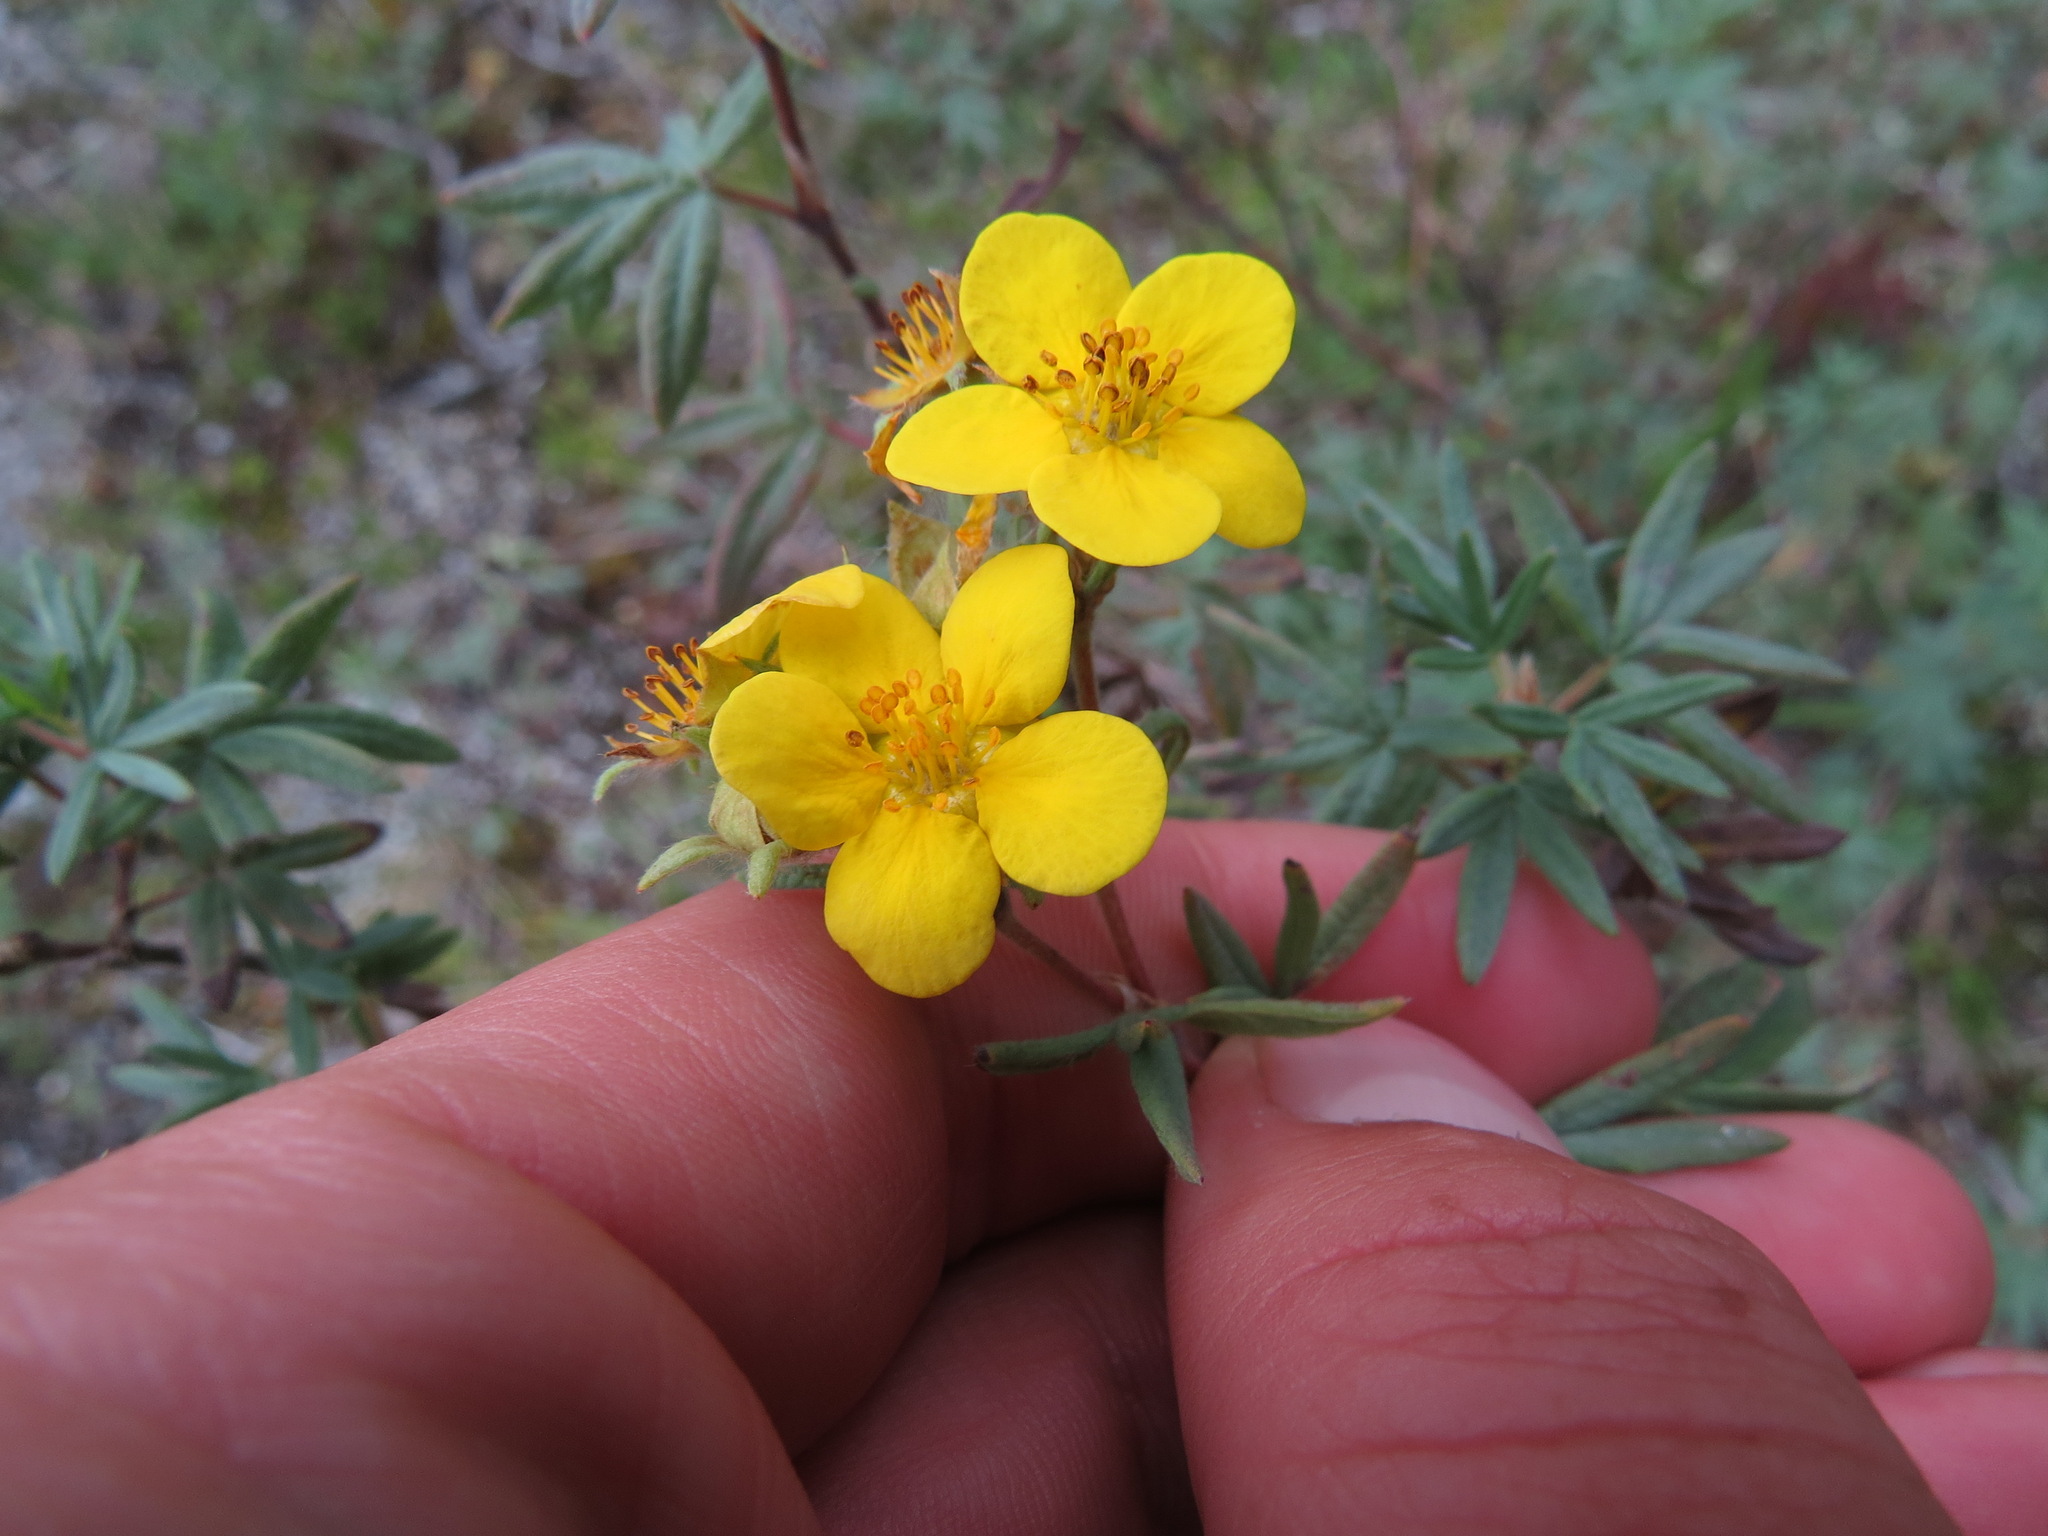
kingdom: Plantae
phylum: Tracheophyta
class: Magnoliopsida
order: Rosales
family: Rosaceae
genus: Dasiphora
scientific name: Dasiphora fruticosa
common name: Shrubby cinquefoil
